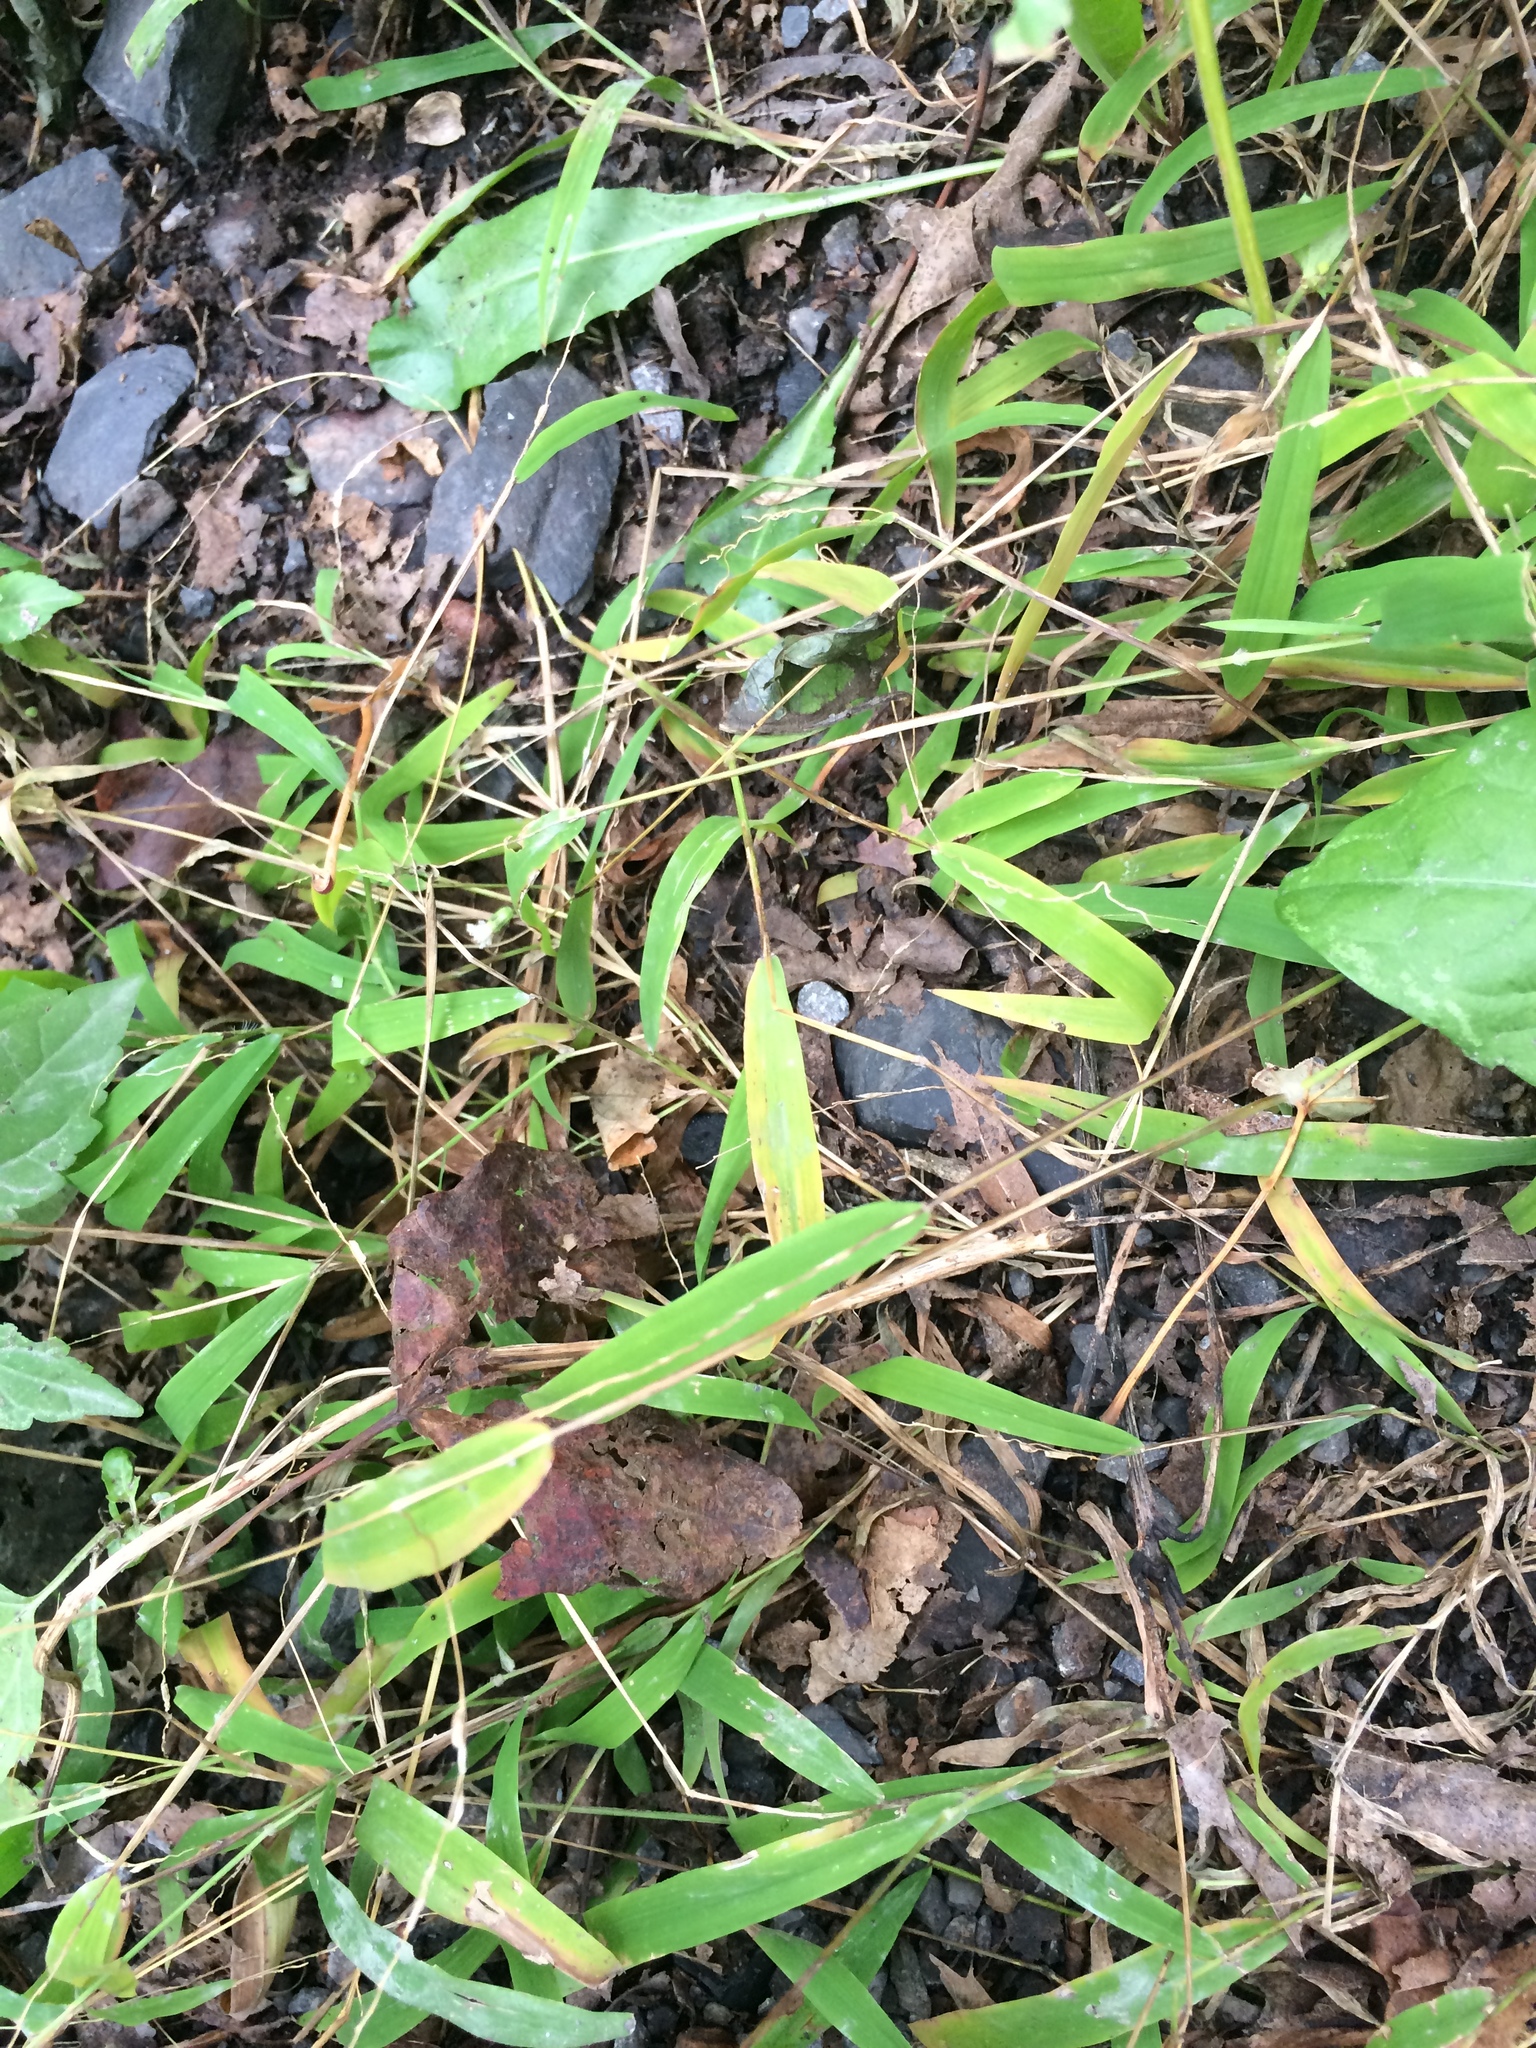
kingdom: Plantae
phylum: Tracheophyta
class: Liliopsida
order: Poales
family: Poaceae
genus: Leersia
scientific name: Leersia virginica
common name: White cutgrass
